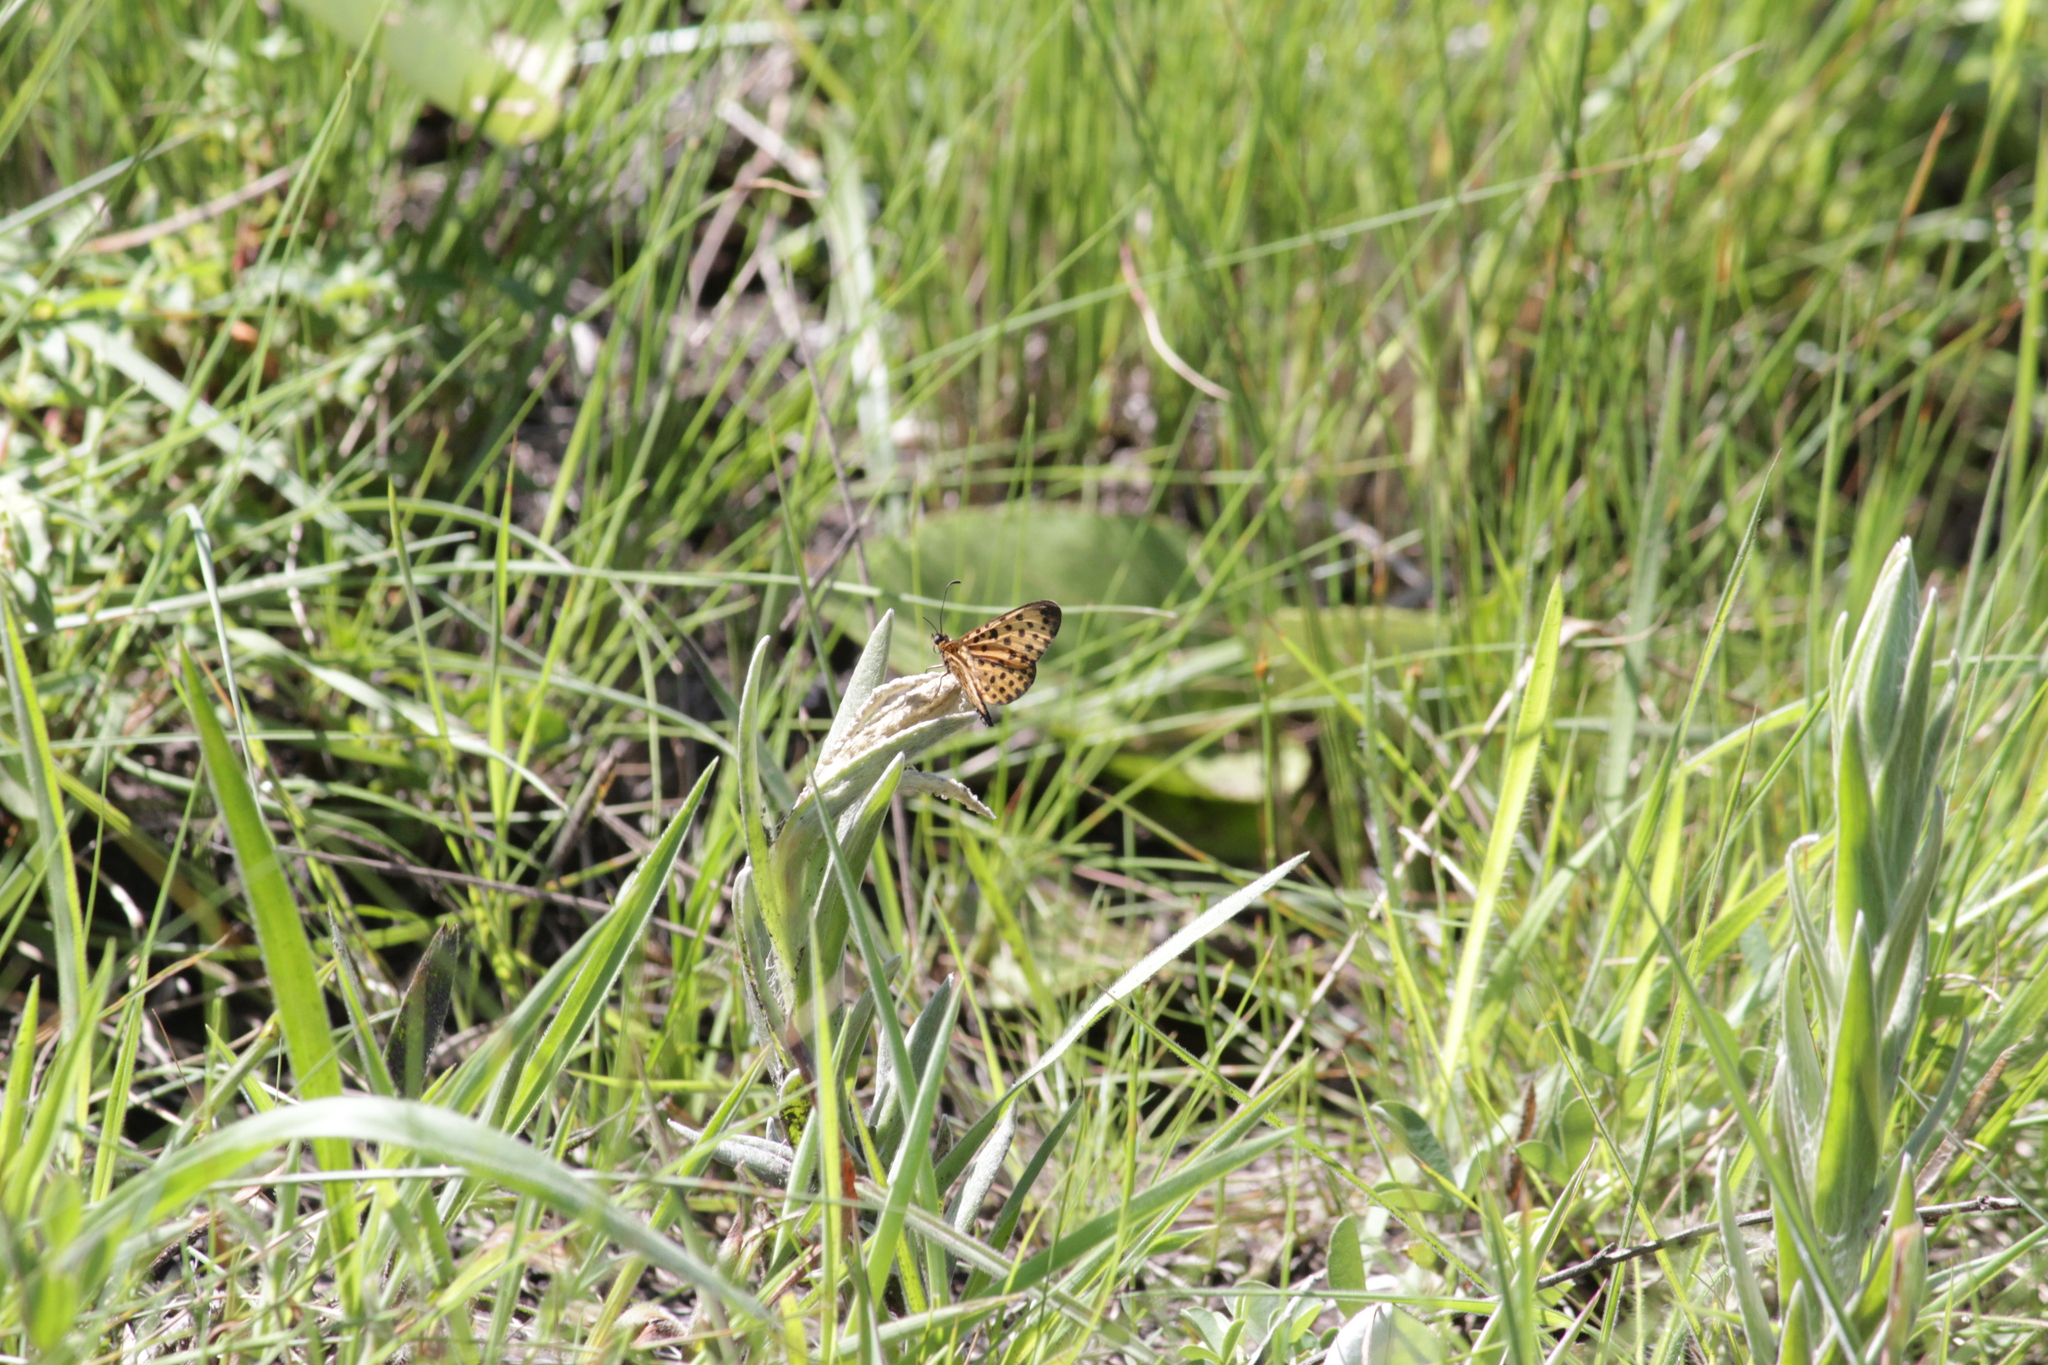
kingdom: Animalia
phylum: Arthropoda
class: Insecta
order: Lepidoptera
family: Nymphalidae
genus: Pardopsis
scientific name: Pardopsis punctatissima
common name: Polka dot
